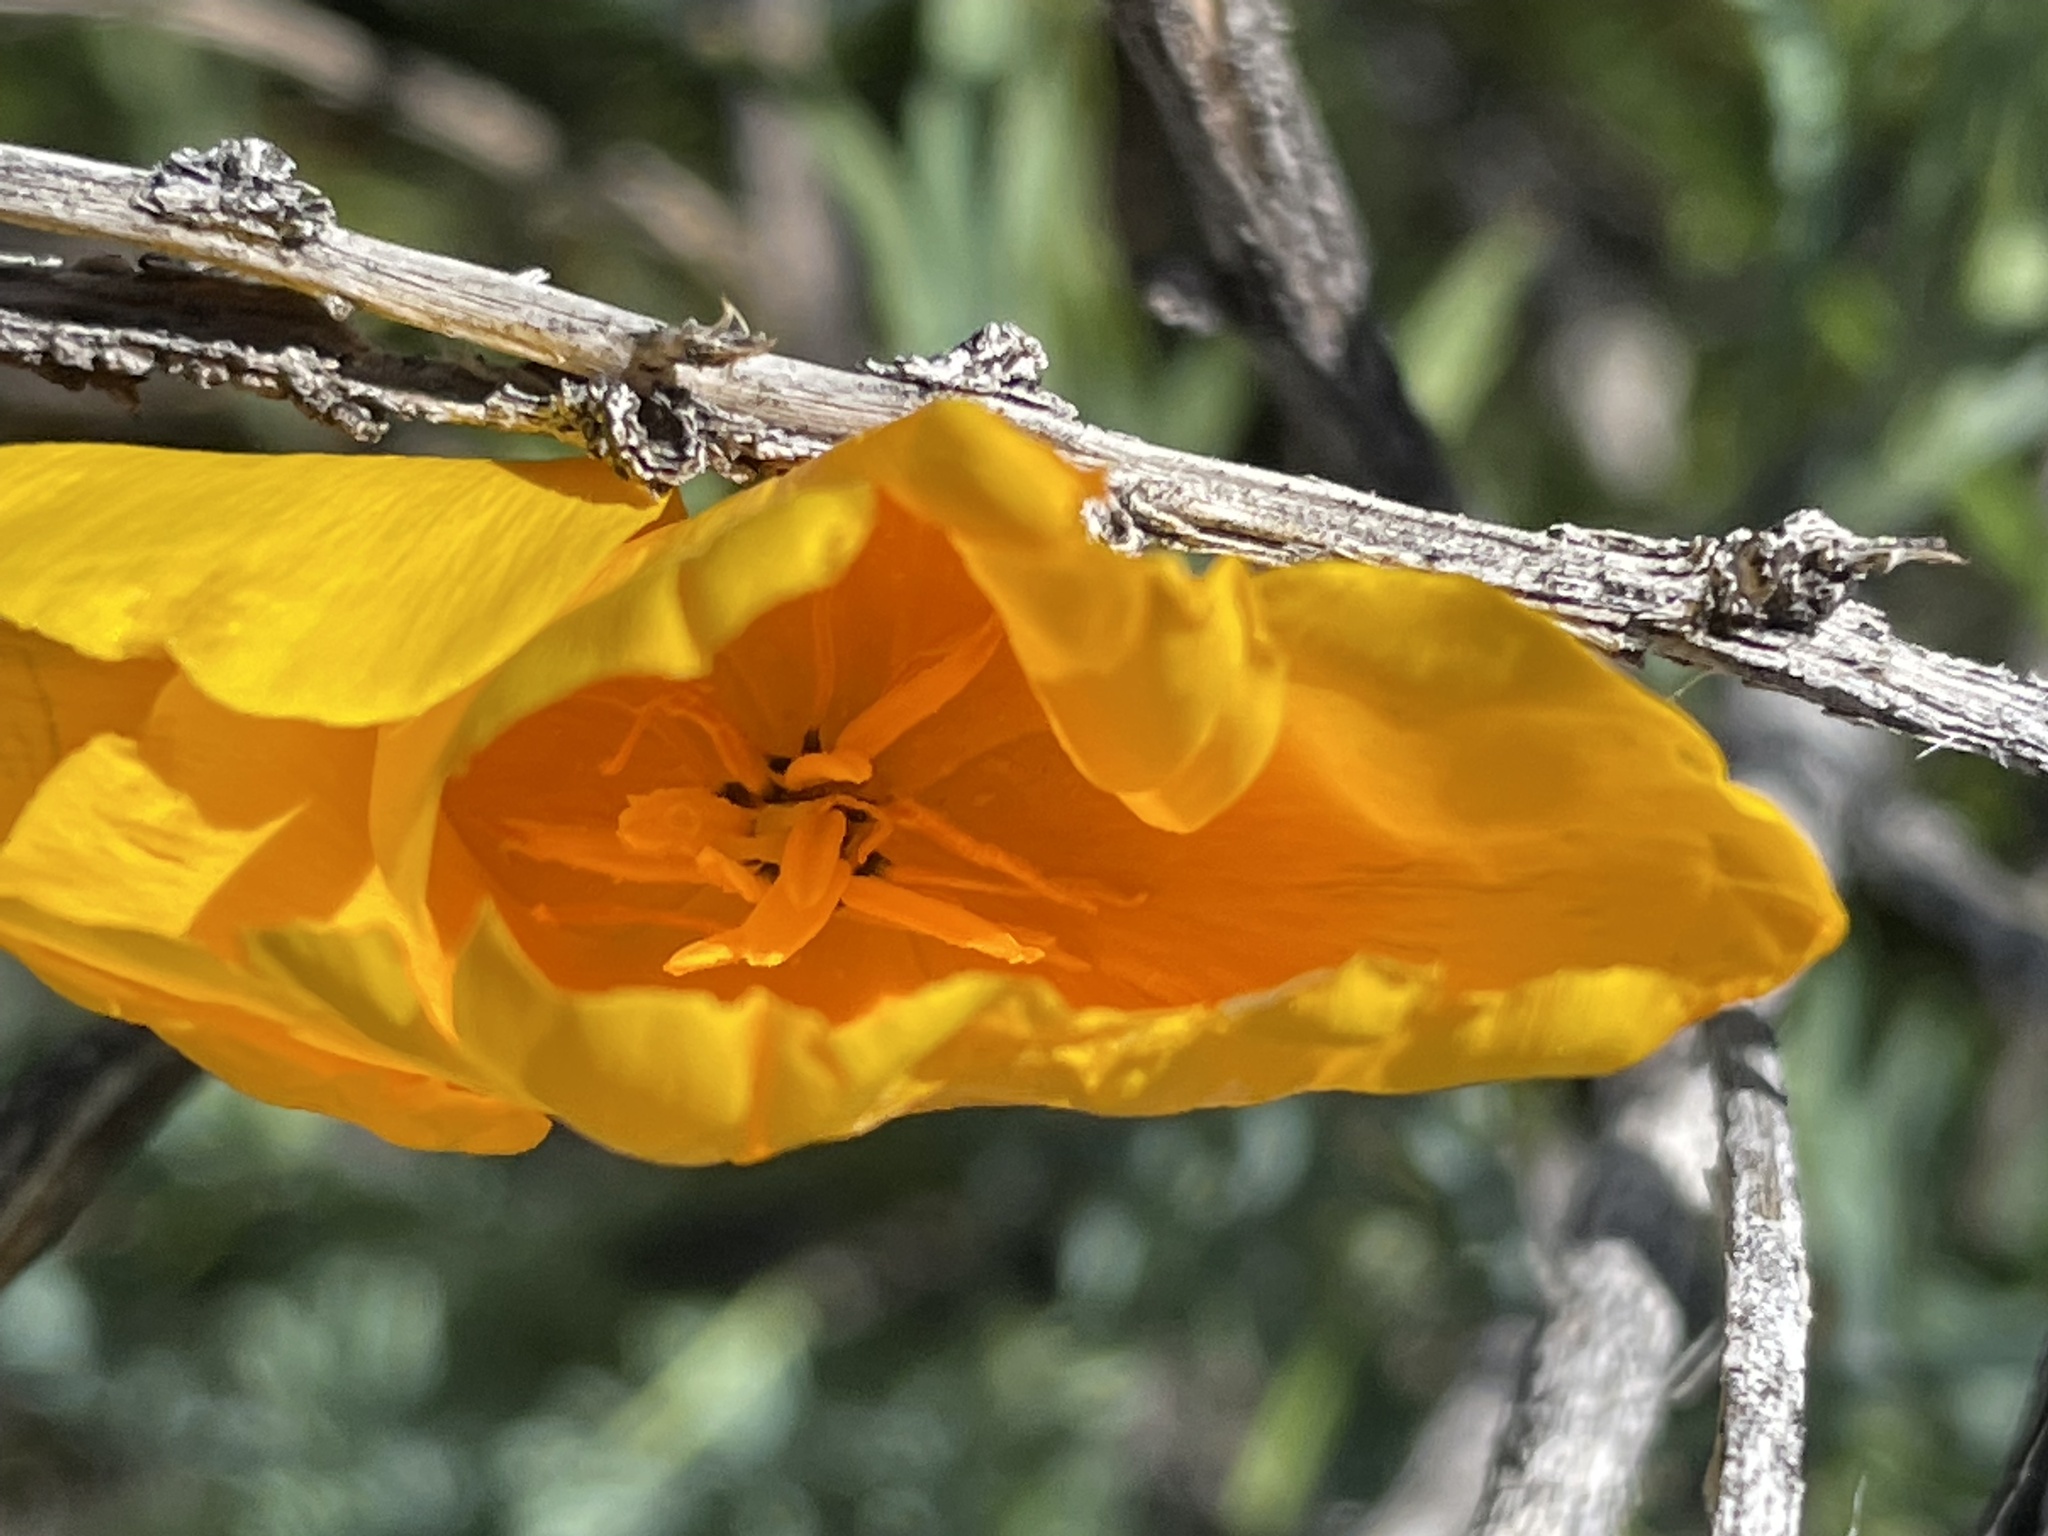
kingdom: Plantae
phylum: Tracheophyta
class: Magnoliopsida
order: Ranunculales
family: Papaveraceae
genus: Eschscholzia
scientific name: Eschscholzia californica
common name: California poppy
